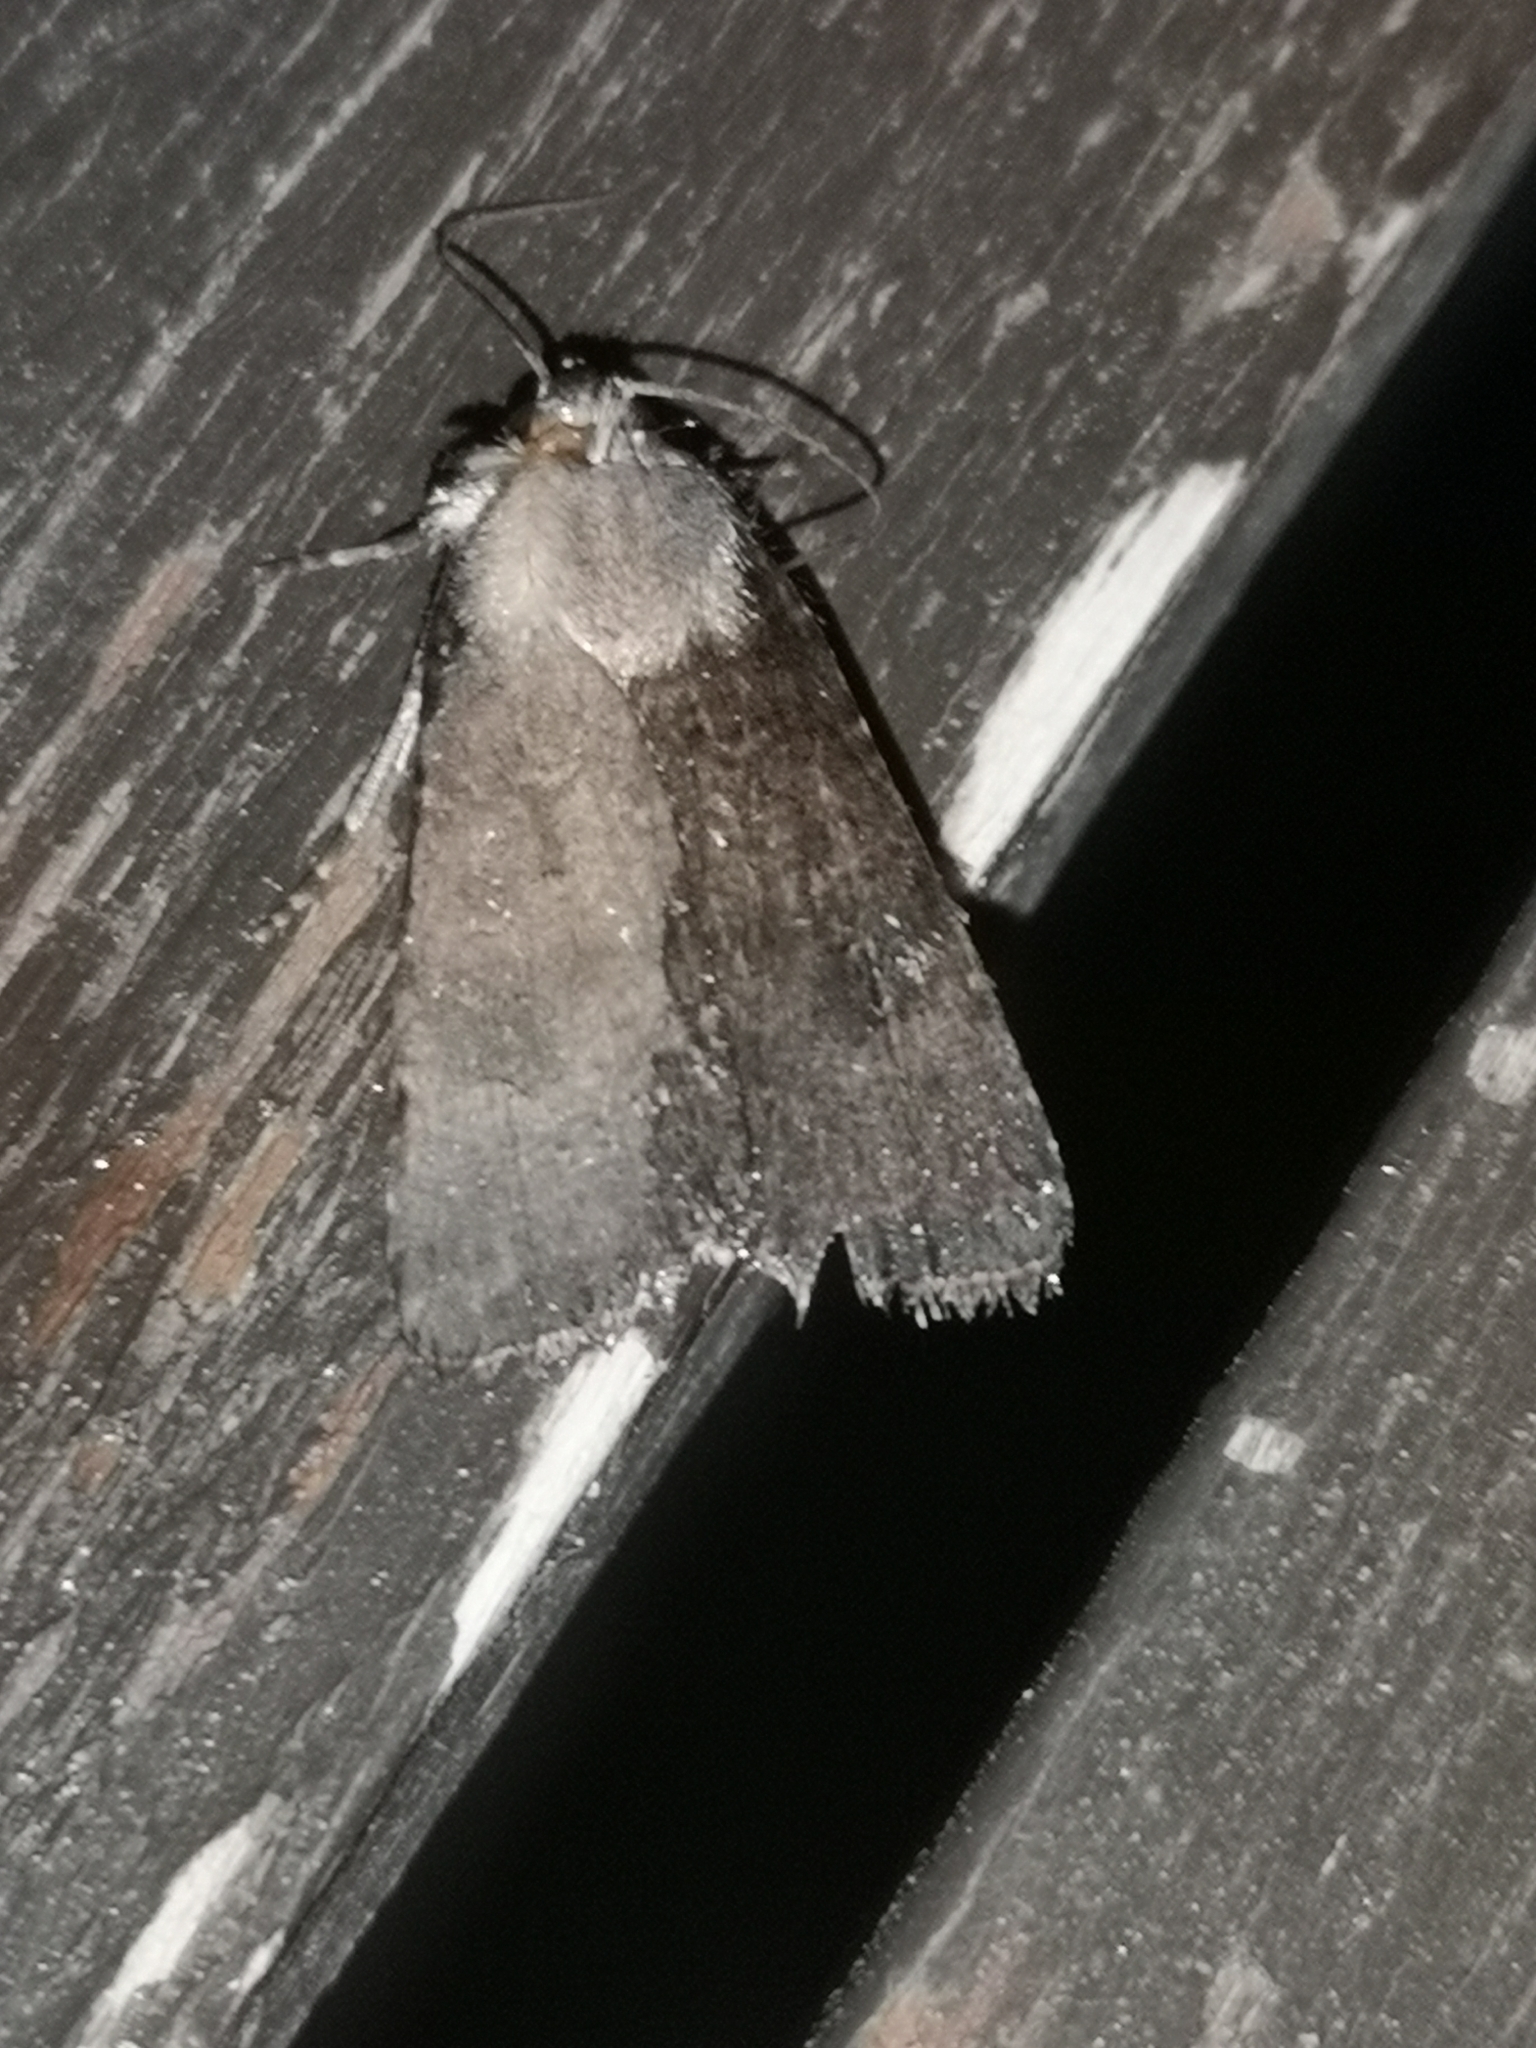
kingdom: Animalia
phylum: Arthropoda
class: Insecta
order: Lepidoptera
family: Noctuidae
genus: Agrotis
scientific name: Agrotis trux
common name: Crescent dart
